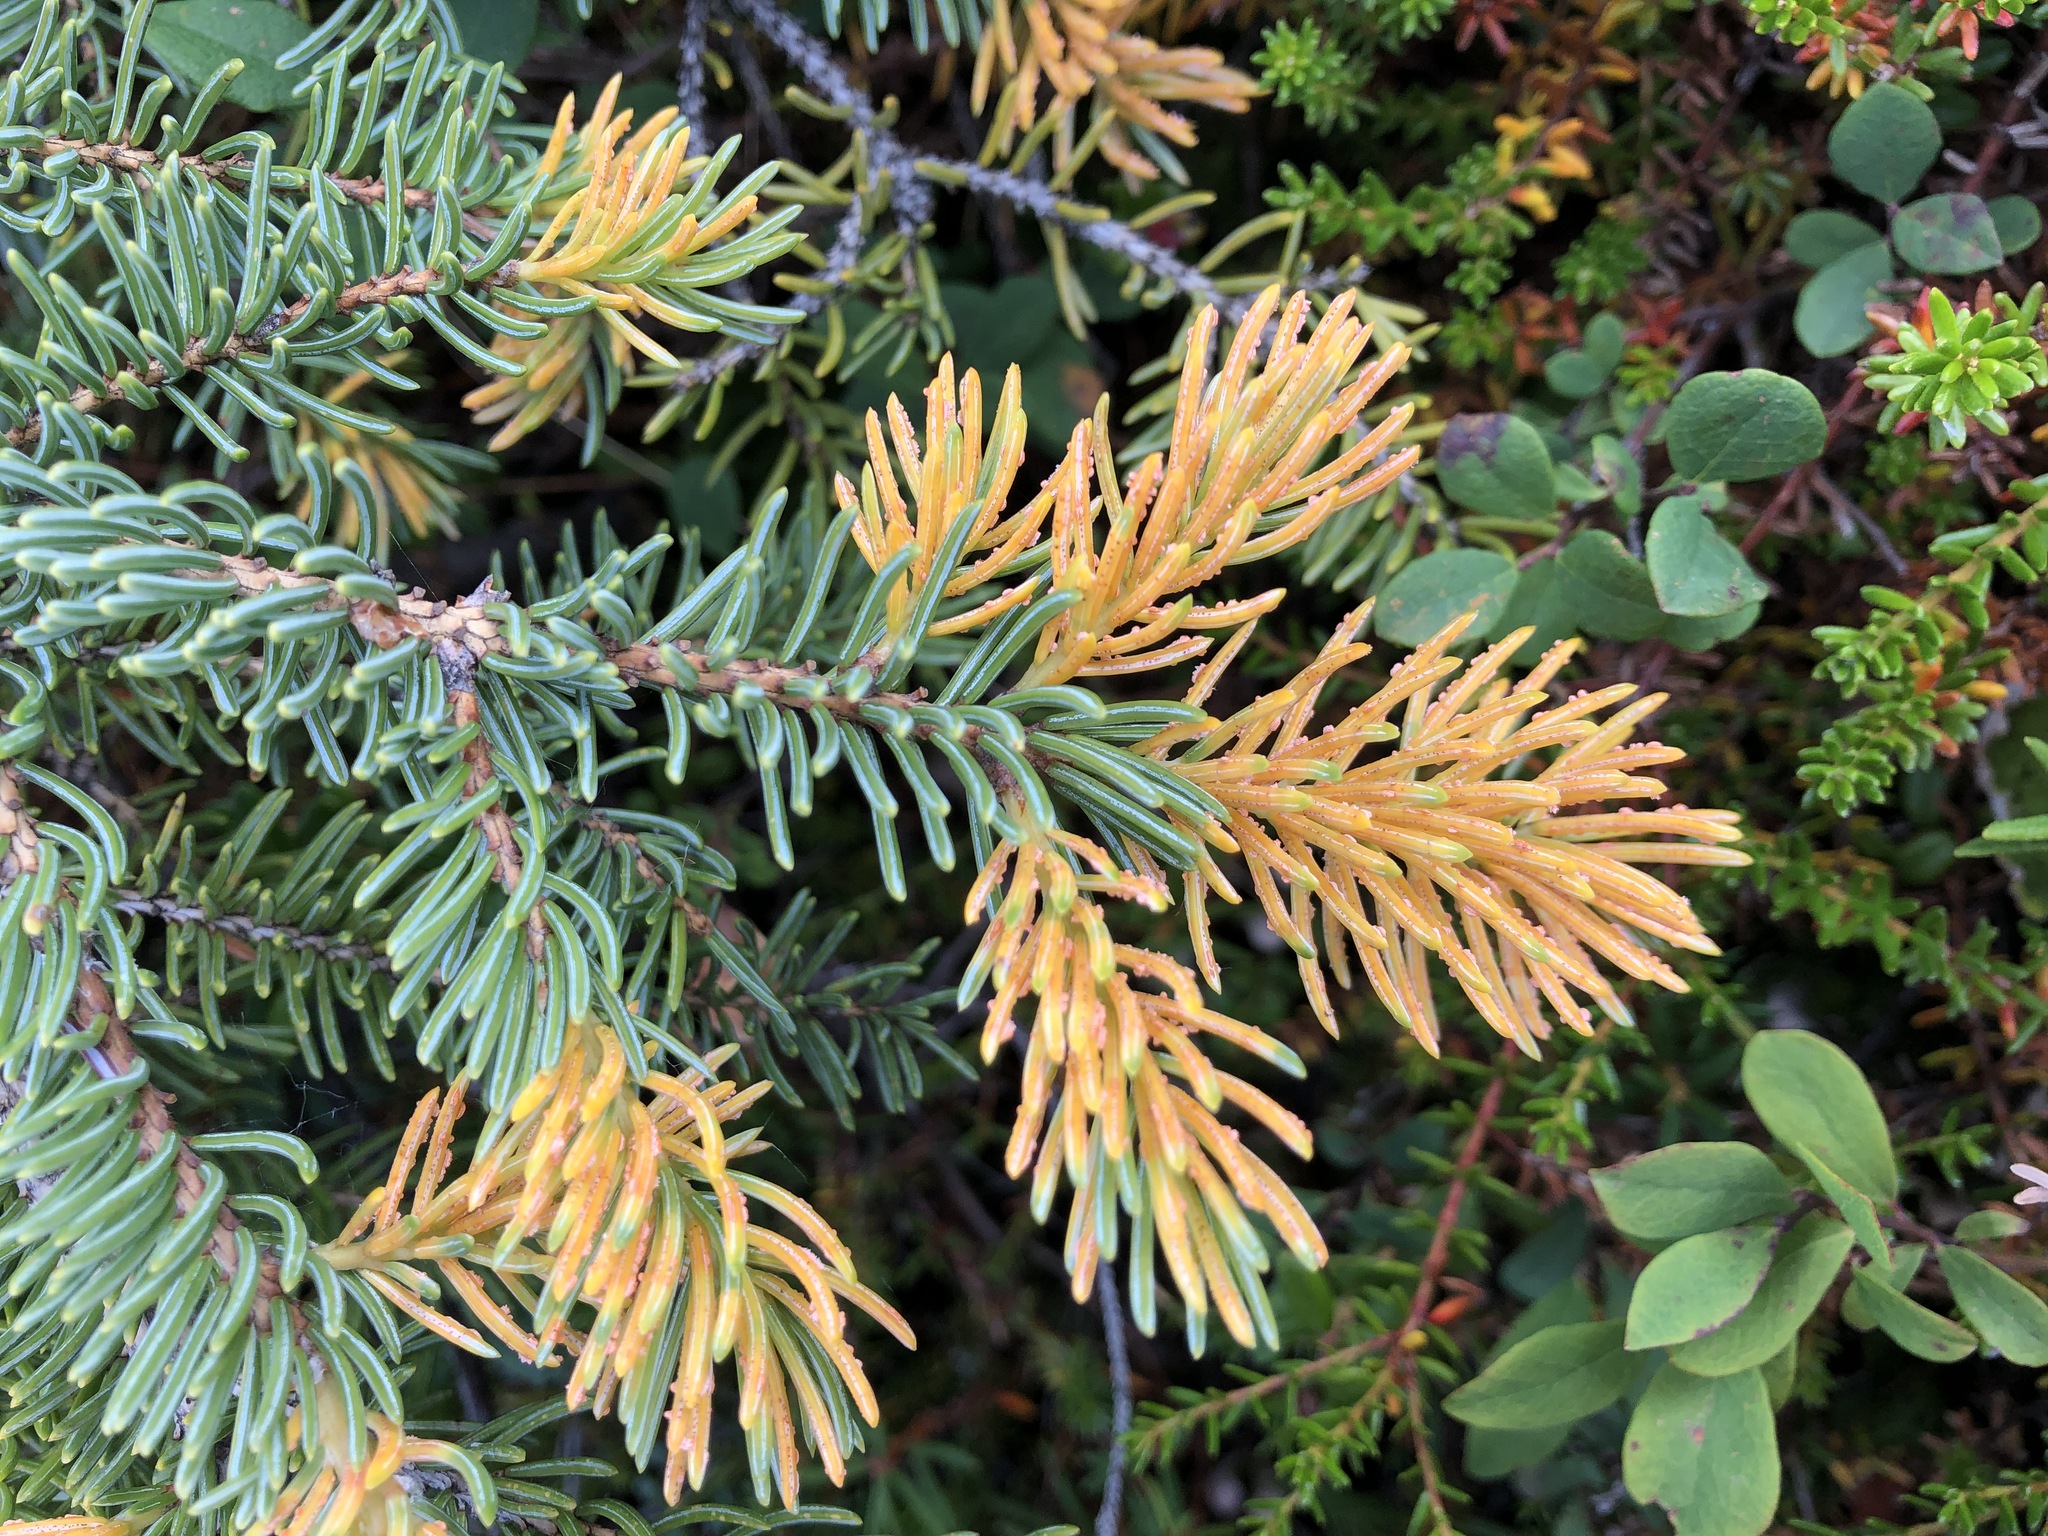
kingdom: Fungi
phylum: Basidiomycota
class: Pucciniomycetes
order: Pucciniales
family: Coleosporiaceae
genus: Chrysomyxa
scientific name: Chrysomyxa ledicola
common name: Spruce-labrador tea needle rust
